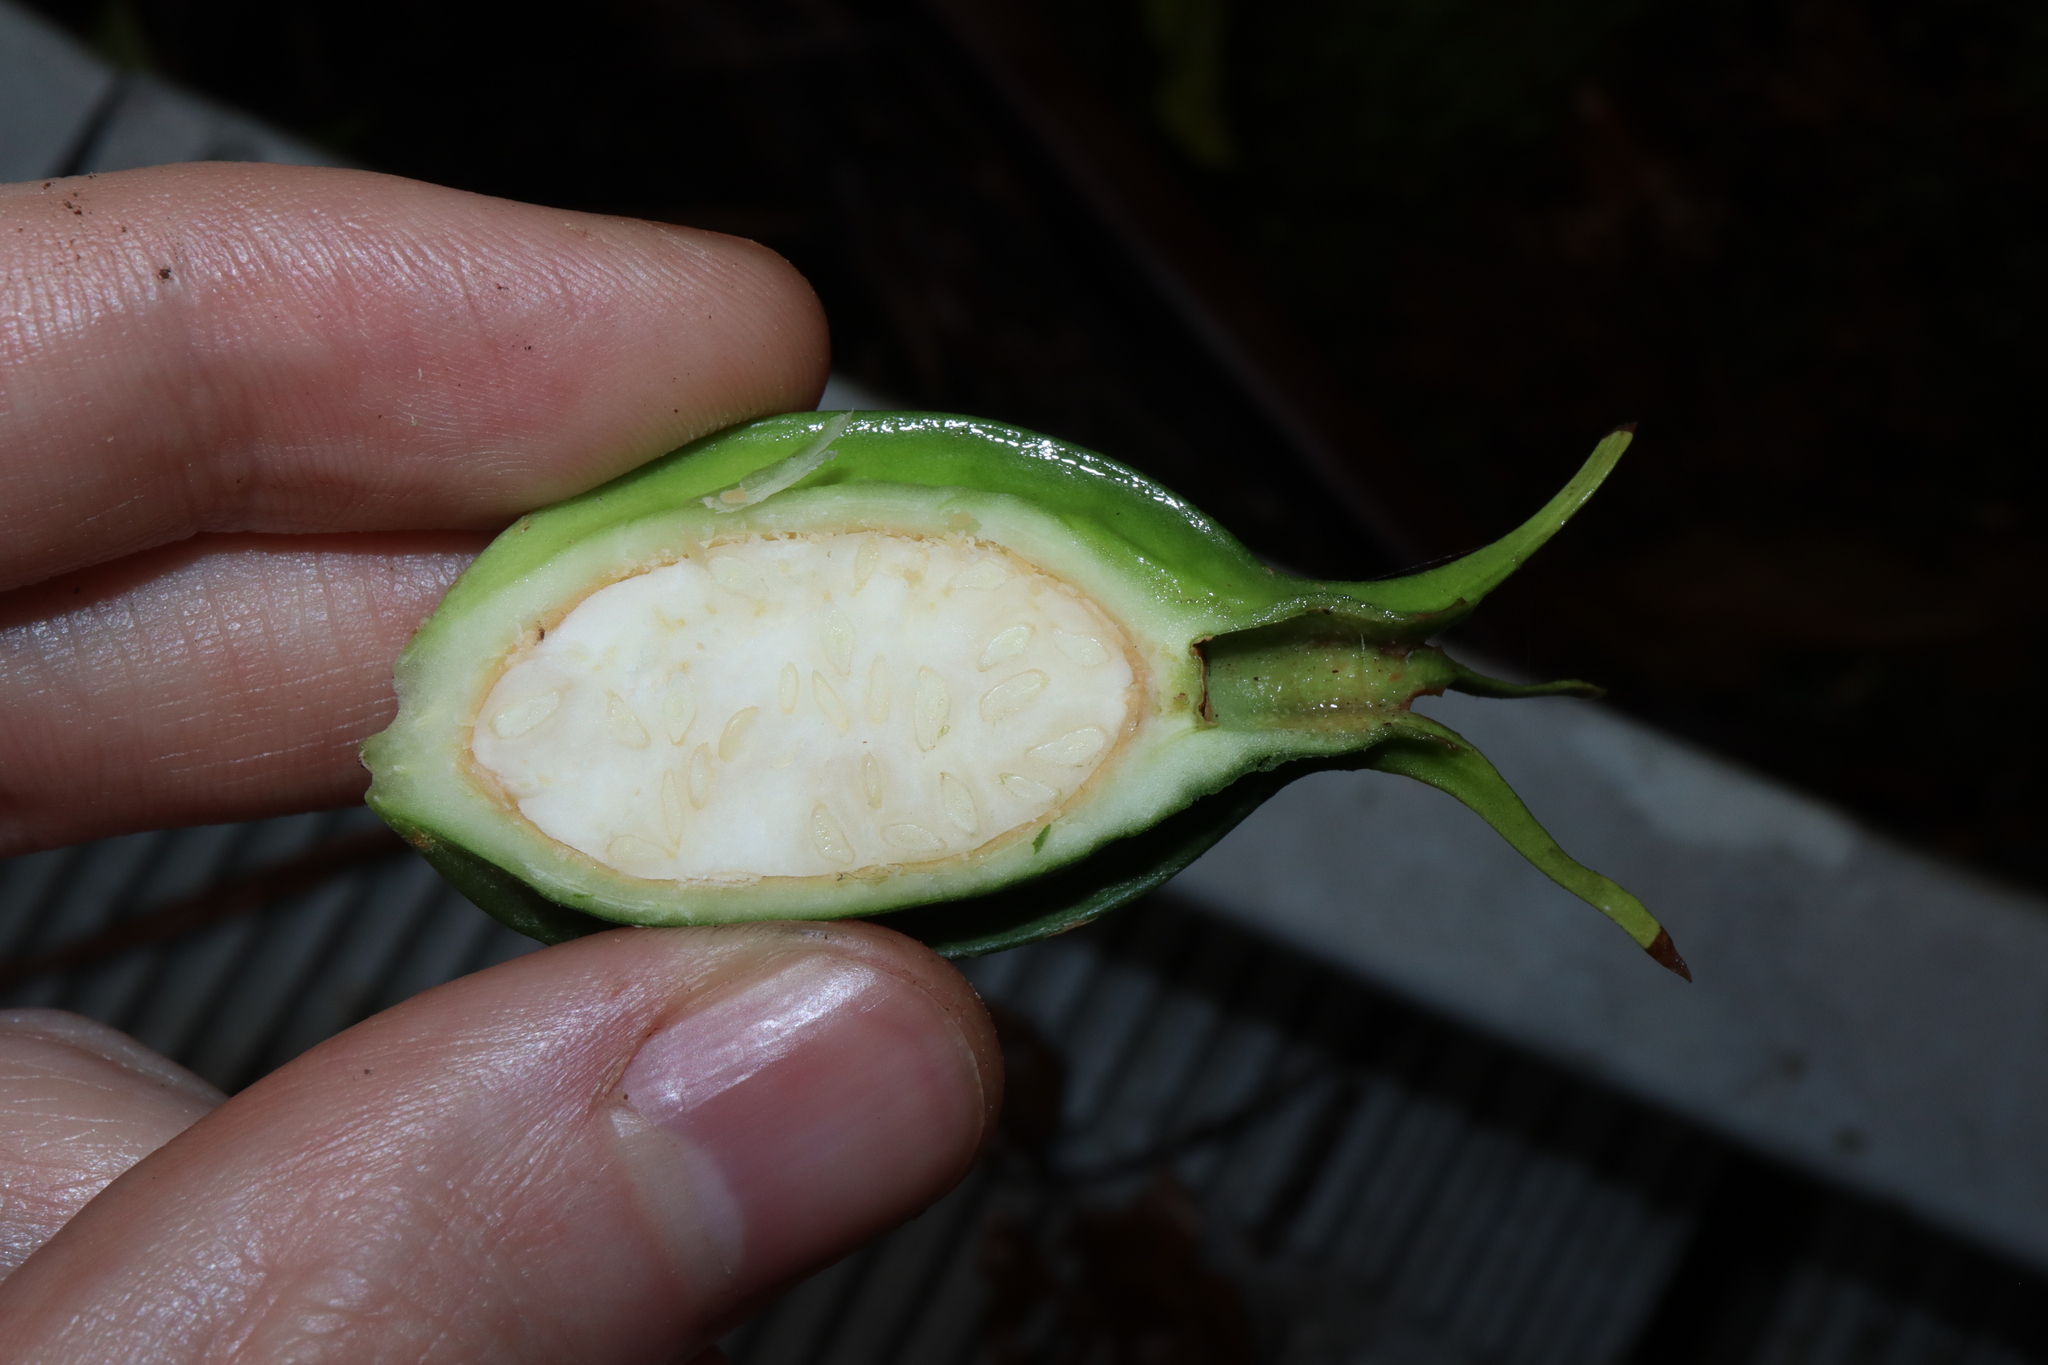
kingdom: Plantae
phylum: Tracheophyta
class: Magnoliopsida
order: Gentianales
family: Rubiaceae
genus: Gardenia
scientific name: Gardenia actinocarpa
